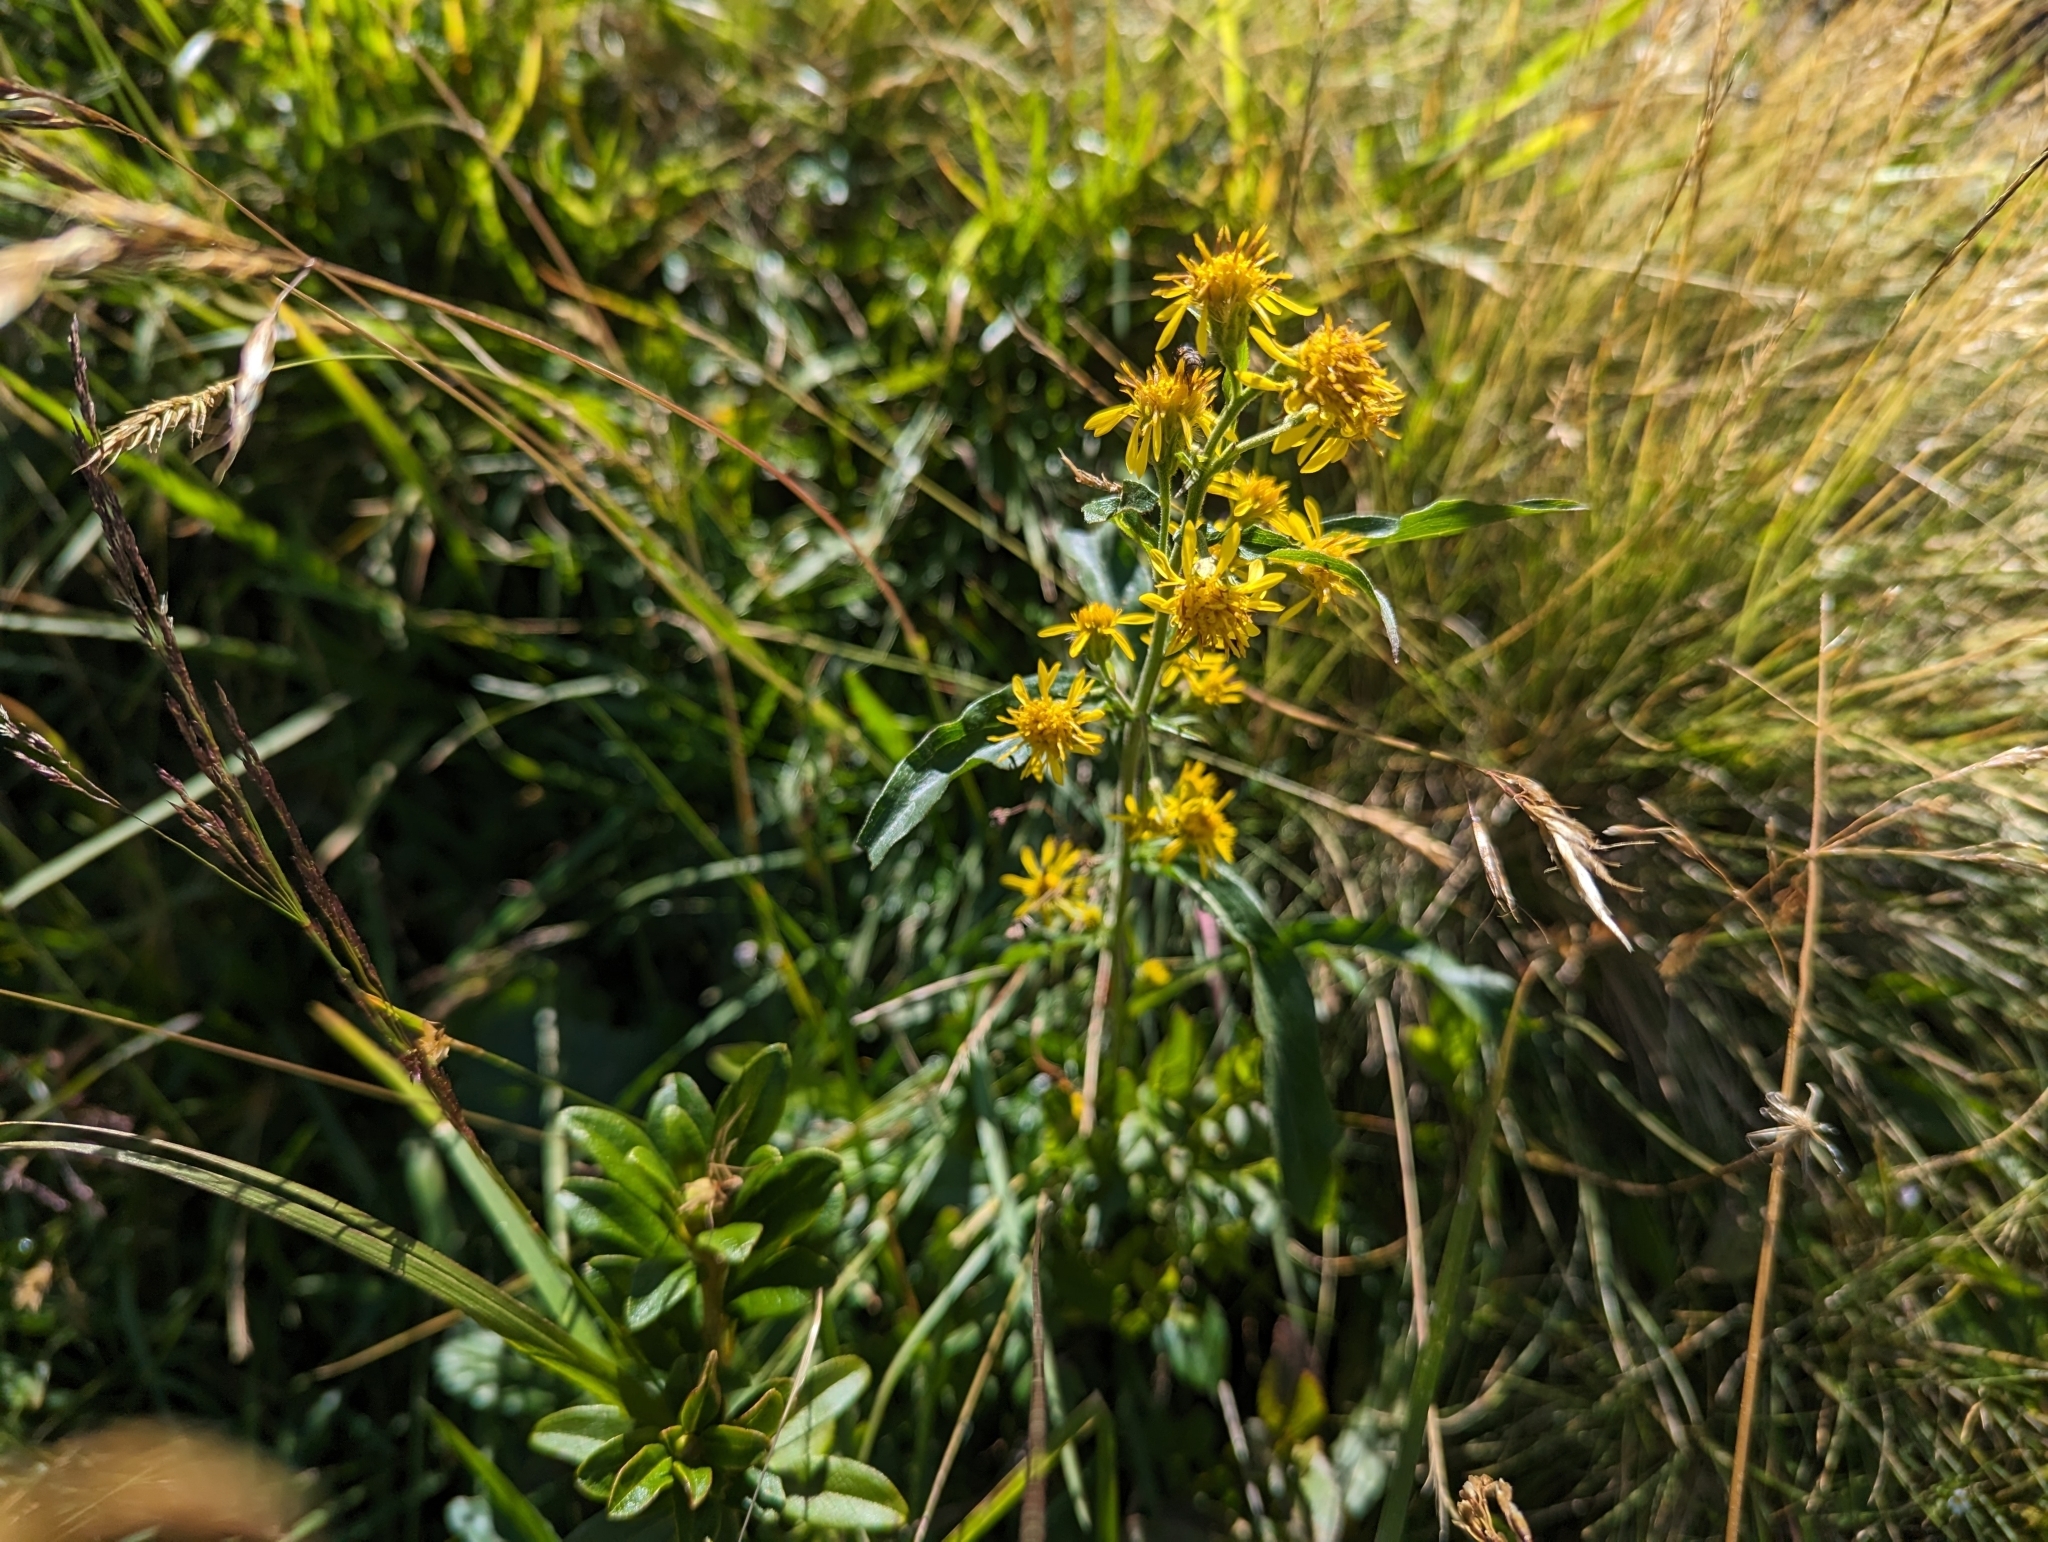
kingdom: Plantae
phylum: Tracheophyta
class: Magnoliopsida
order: Asterales
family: Asteraceae
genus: Solidago
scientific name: Solidago virgaurea
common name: Goldenrod
